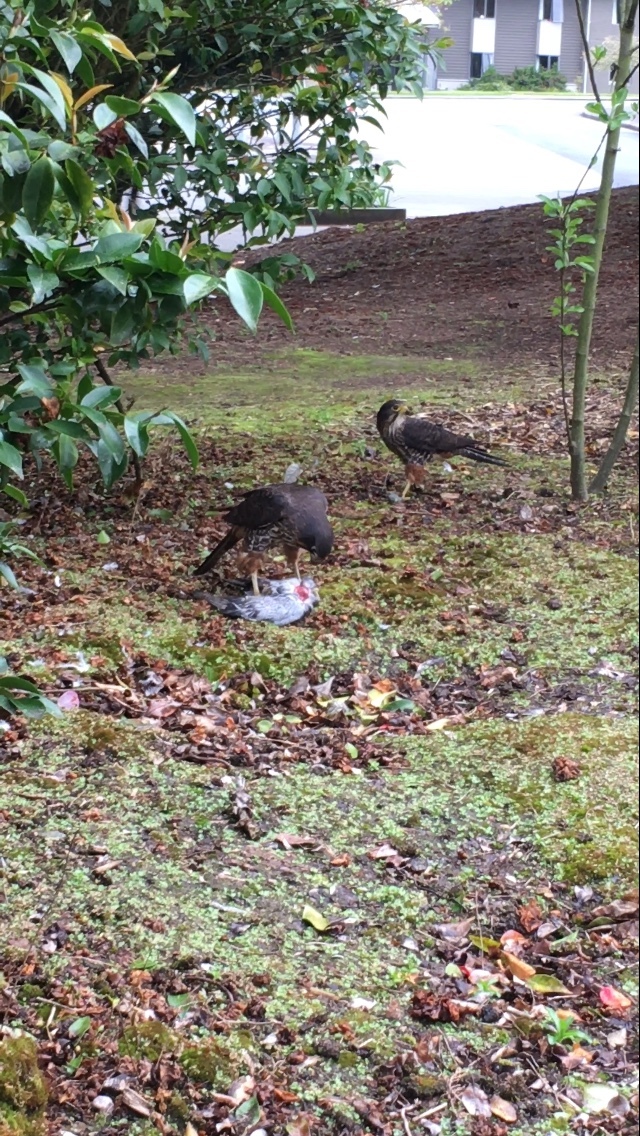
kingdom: Animalia
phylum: Chordata
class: Aves
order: Falconiformes
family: Falconidae
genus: Falco
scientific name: Falco novaeseelandiae
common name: New zealand falcon
